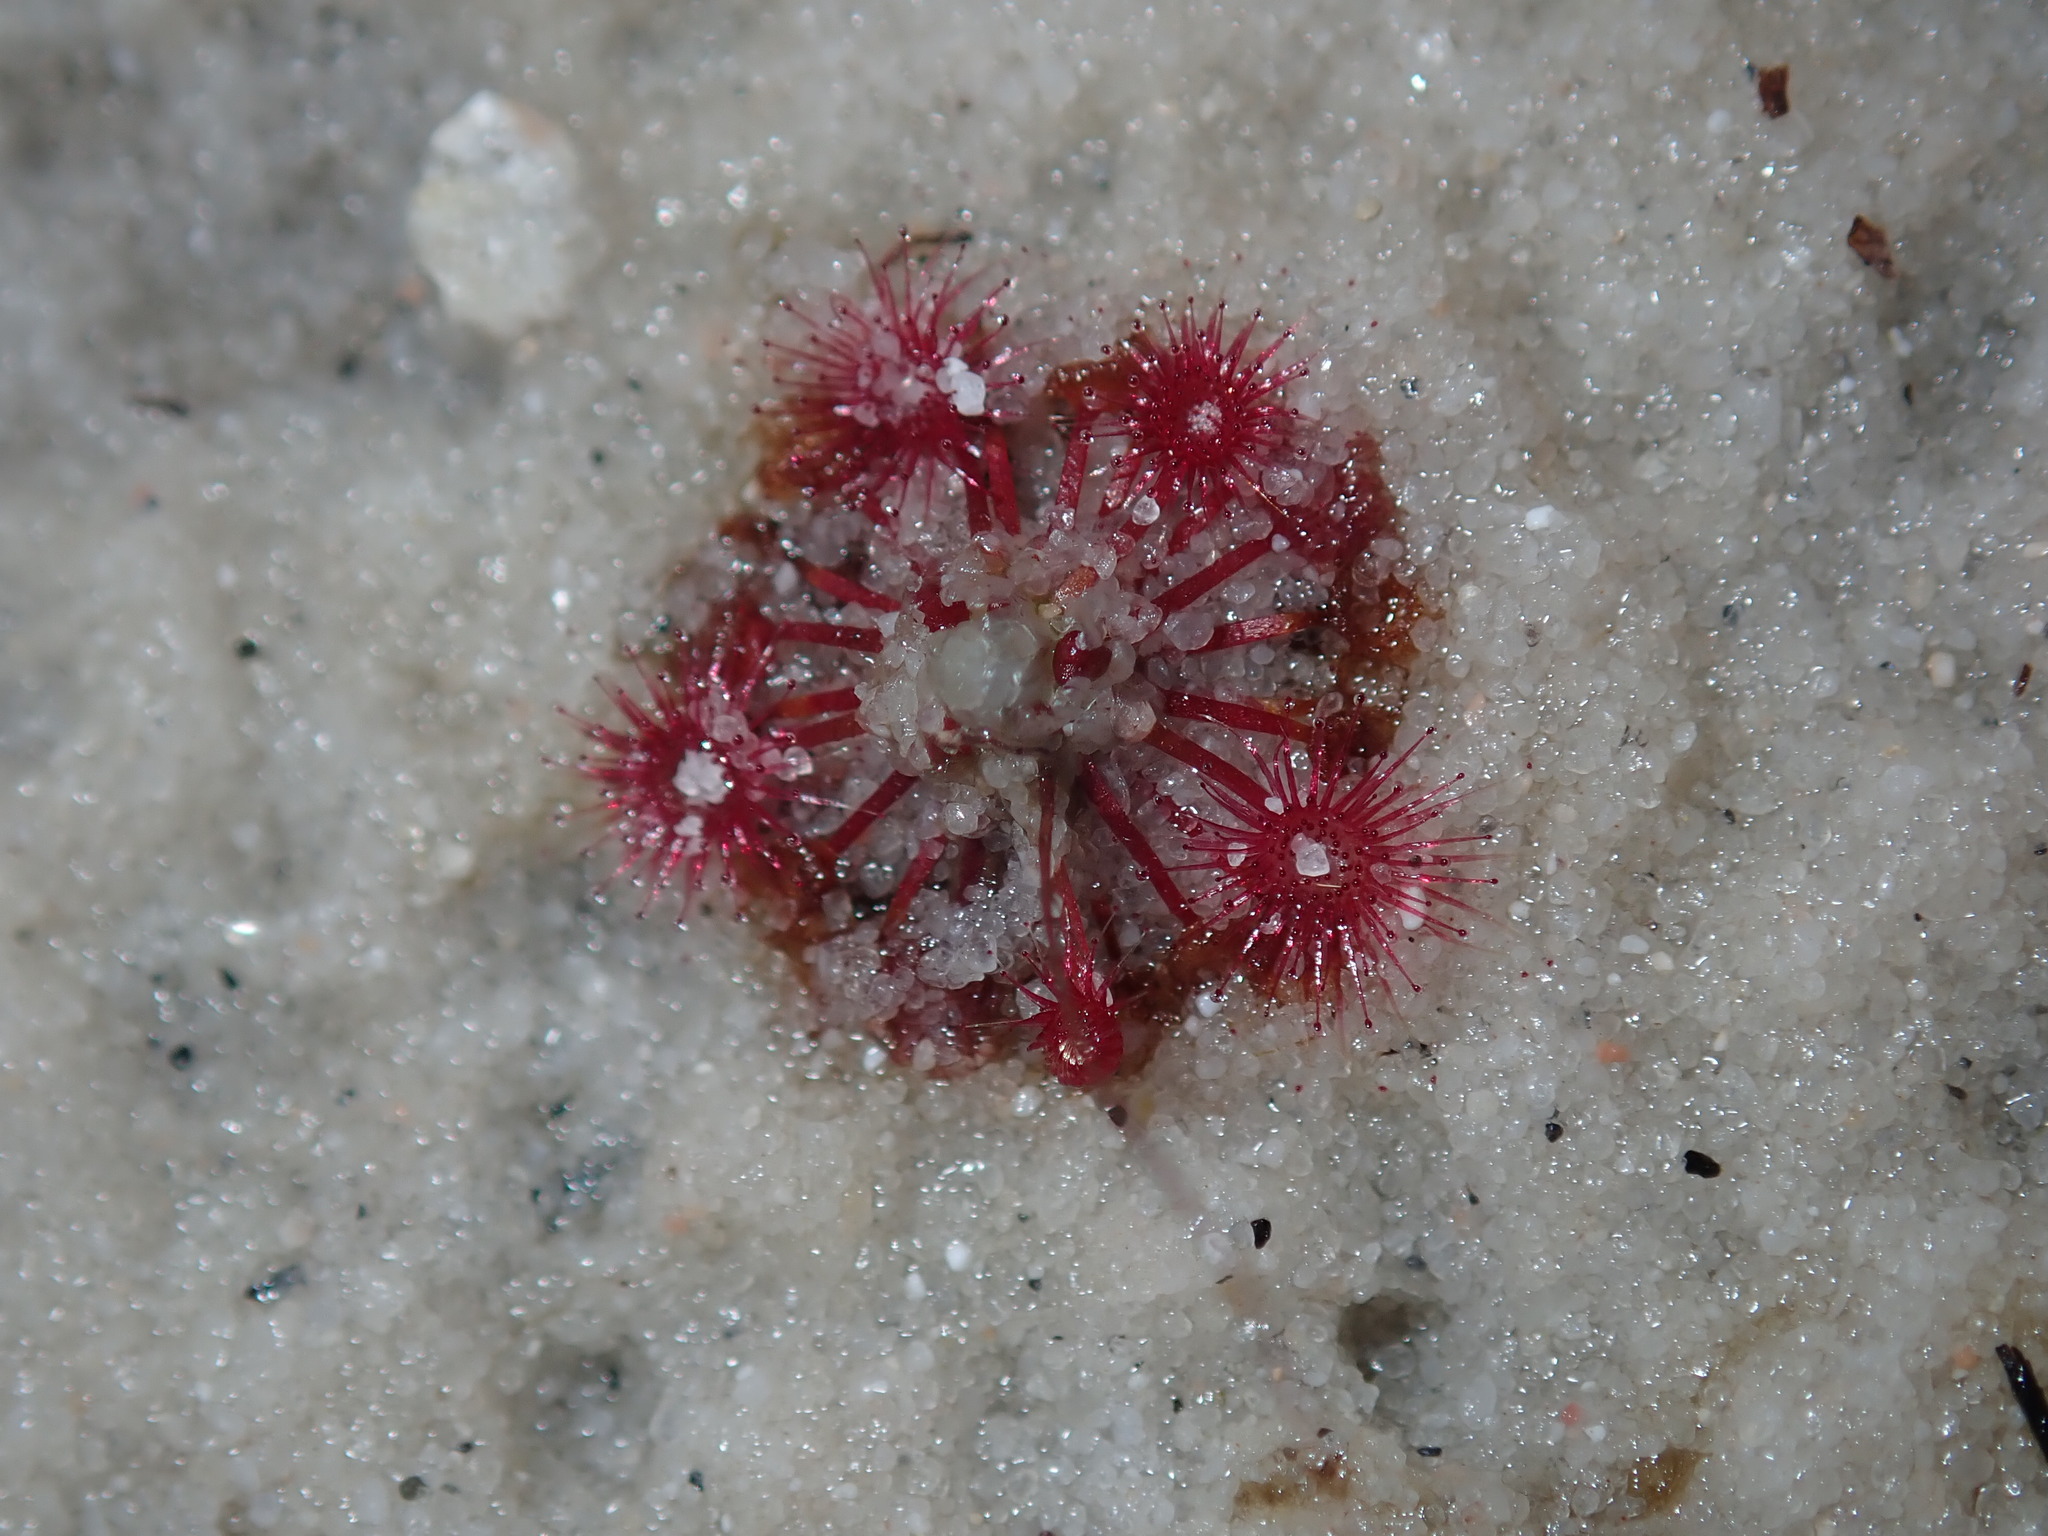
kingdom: Plantae
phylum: Tracheophyta
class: Magnoliopsida
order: Caryophyllales
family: Droseraceae
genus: Drosera
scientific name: Drosera pygmaea
